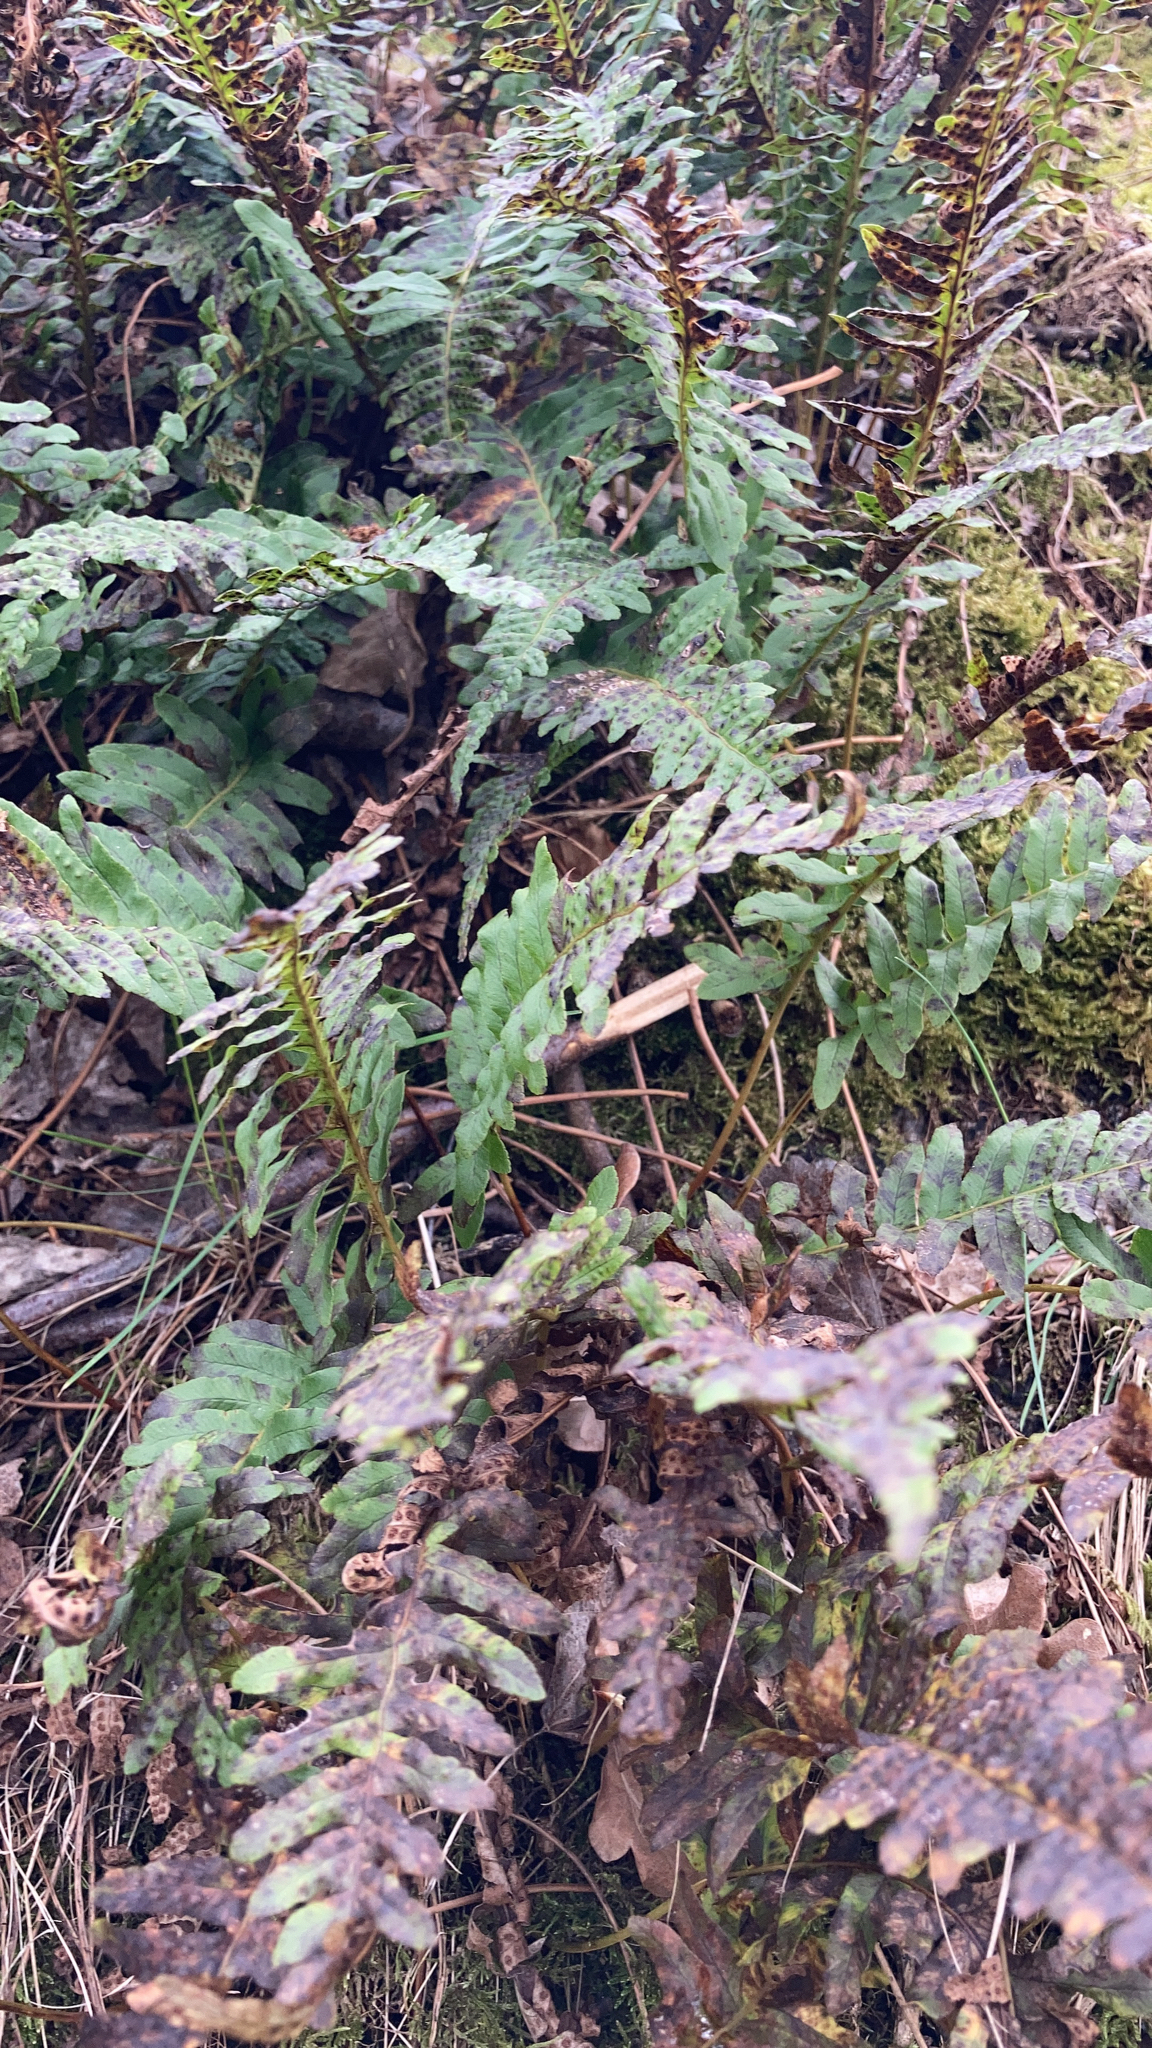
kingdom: Plantae
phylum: Tracheophyta
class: Polypodiopsida
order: Polypodiales
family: Polypodiaceae
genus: Polypodium
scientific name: Polypodium vulgare
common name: Common polypody
